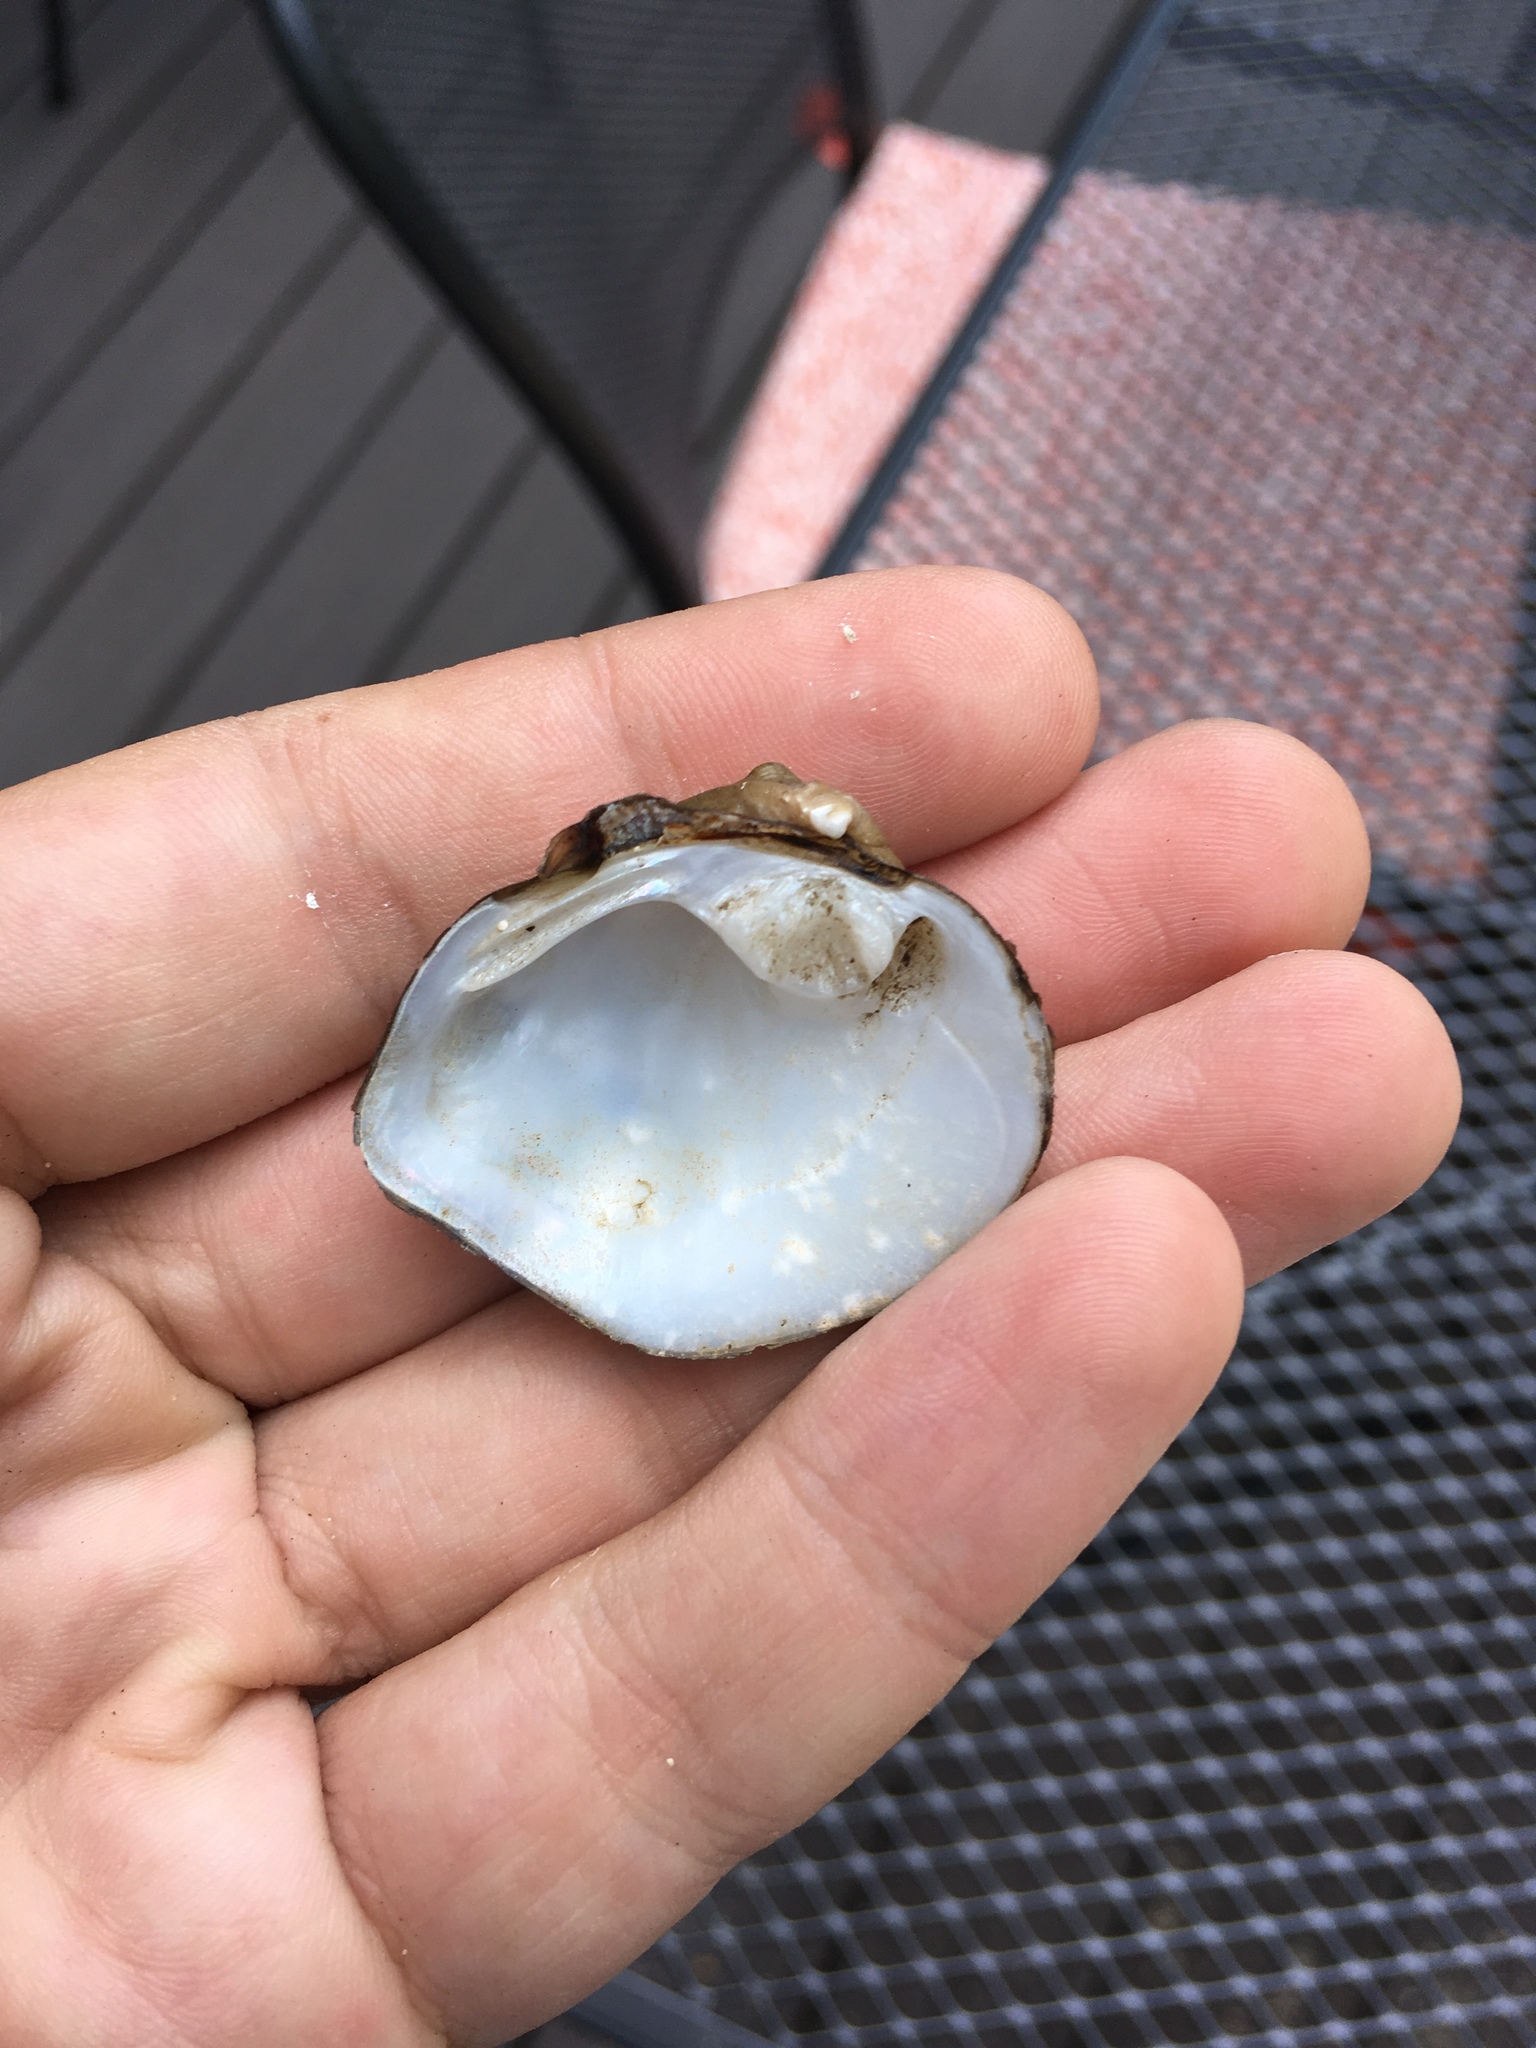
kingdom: Animalia
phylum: Mollusca
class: Bivalvia
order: Unionida
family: Unionidae
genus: Obliquaria
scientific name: Obliquaria reflexa
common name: Threehorn wartyback
